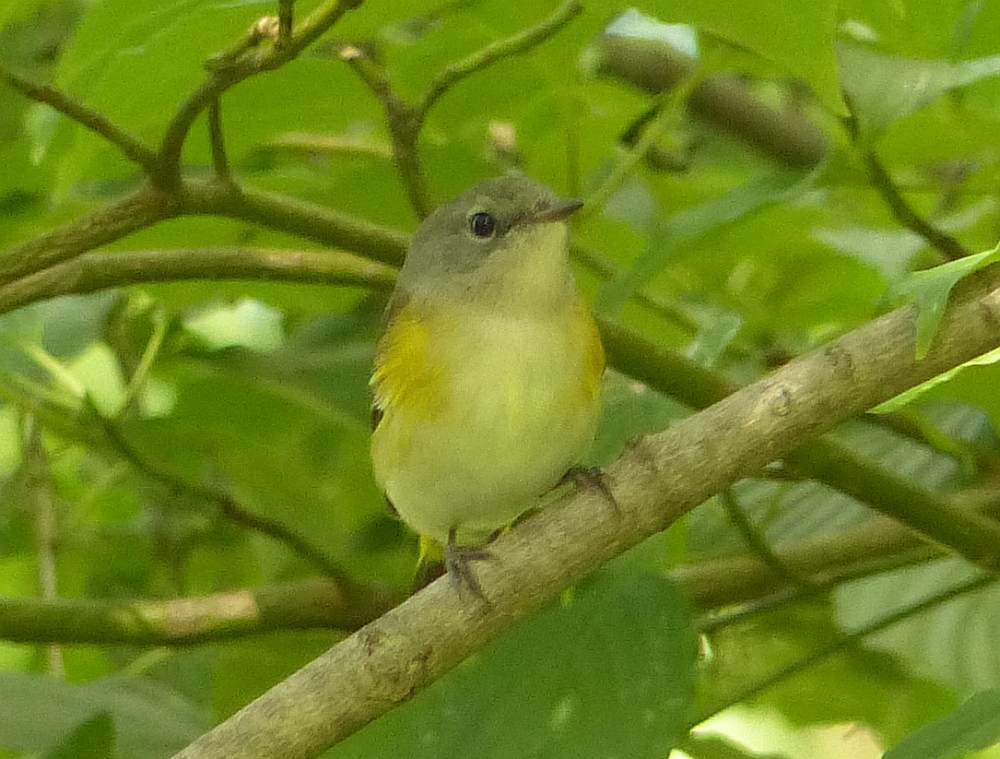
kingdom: Animalia
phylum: Chordata
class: Aves
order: Passeriformes
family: Parulidae
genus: Setophaga
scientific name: Setophaga ruticilla
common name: American redstart
